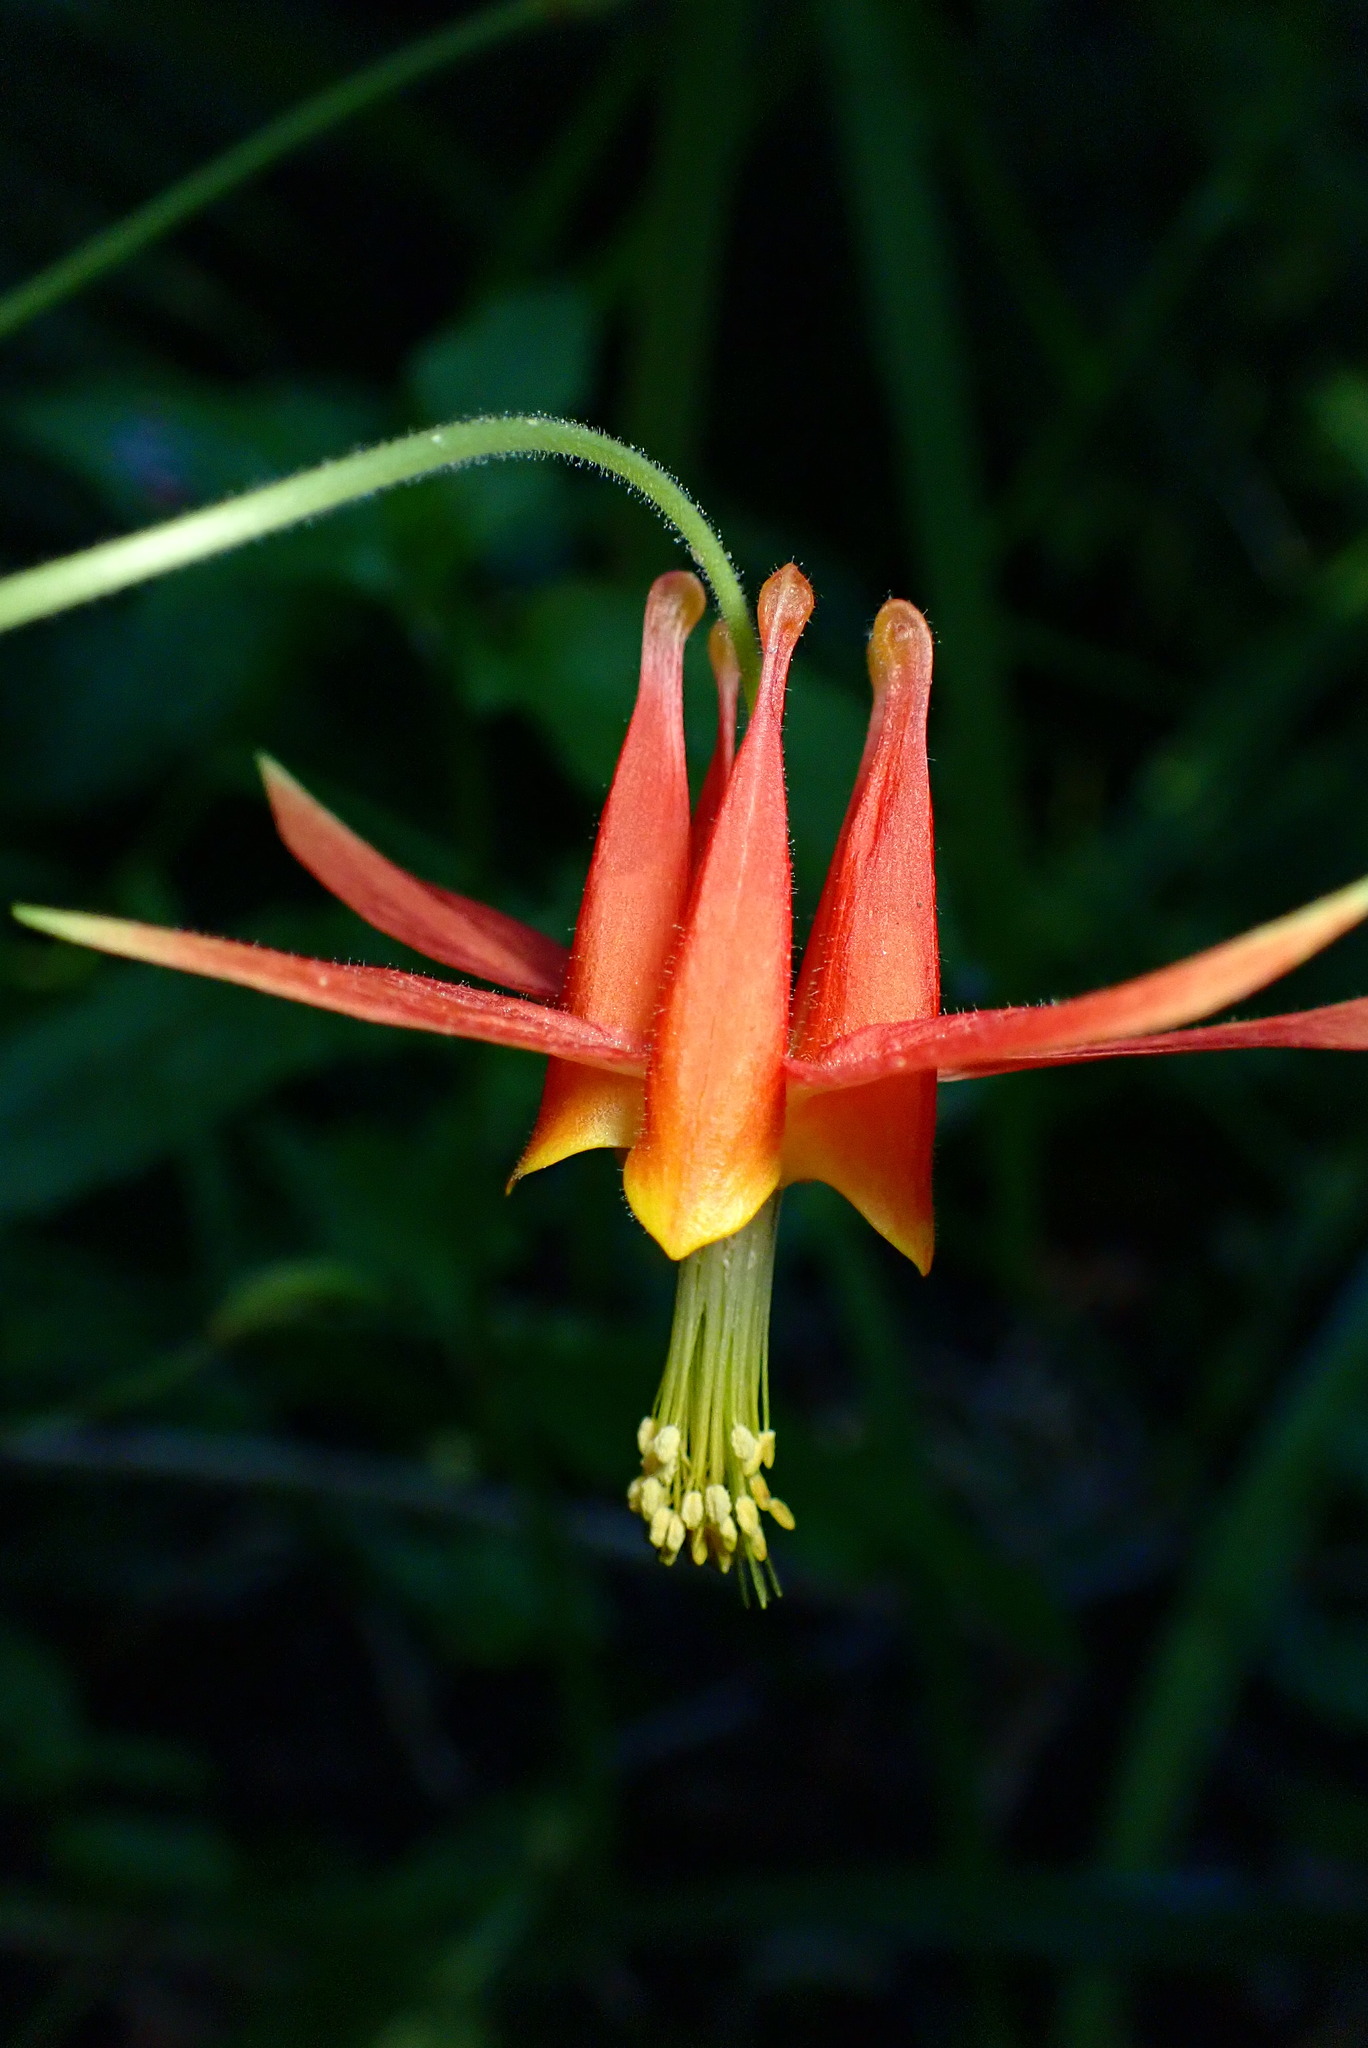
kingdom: Plantae
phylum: Tracheophyta
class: Magnoliopsida
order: Ranunculales
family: Ranunculaceae
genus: Aquilegia
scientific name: Aquilegia formosa
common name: Sitka columbine
